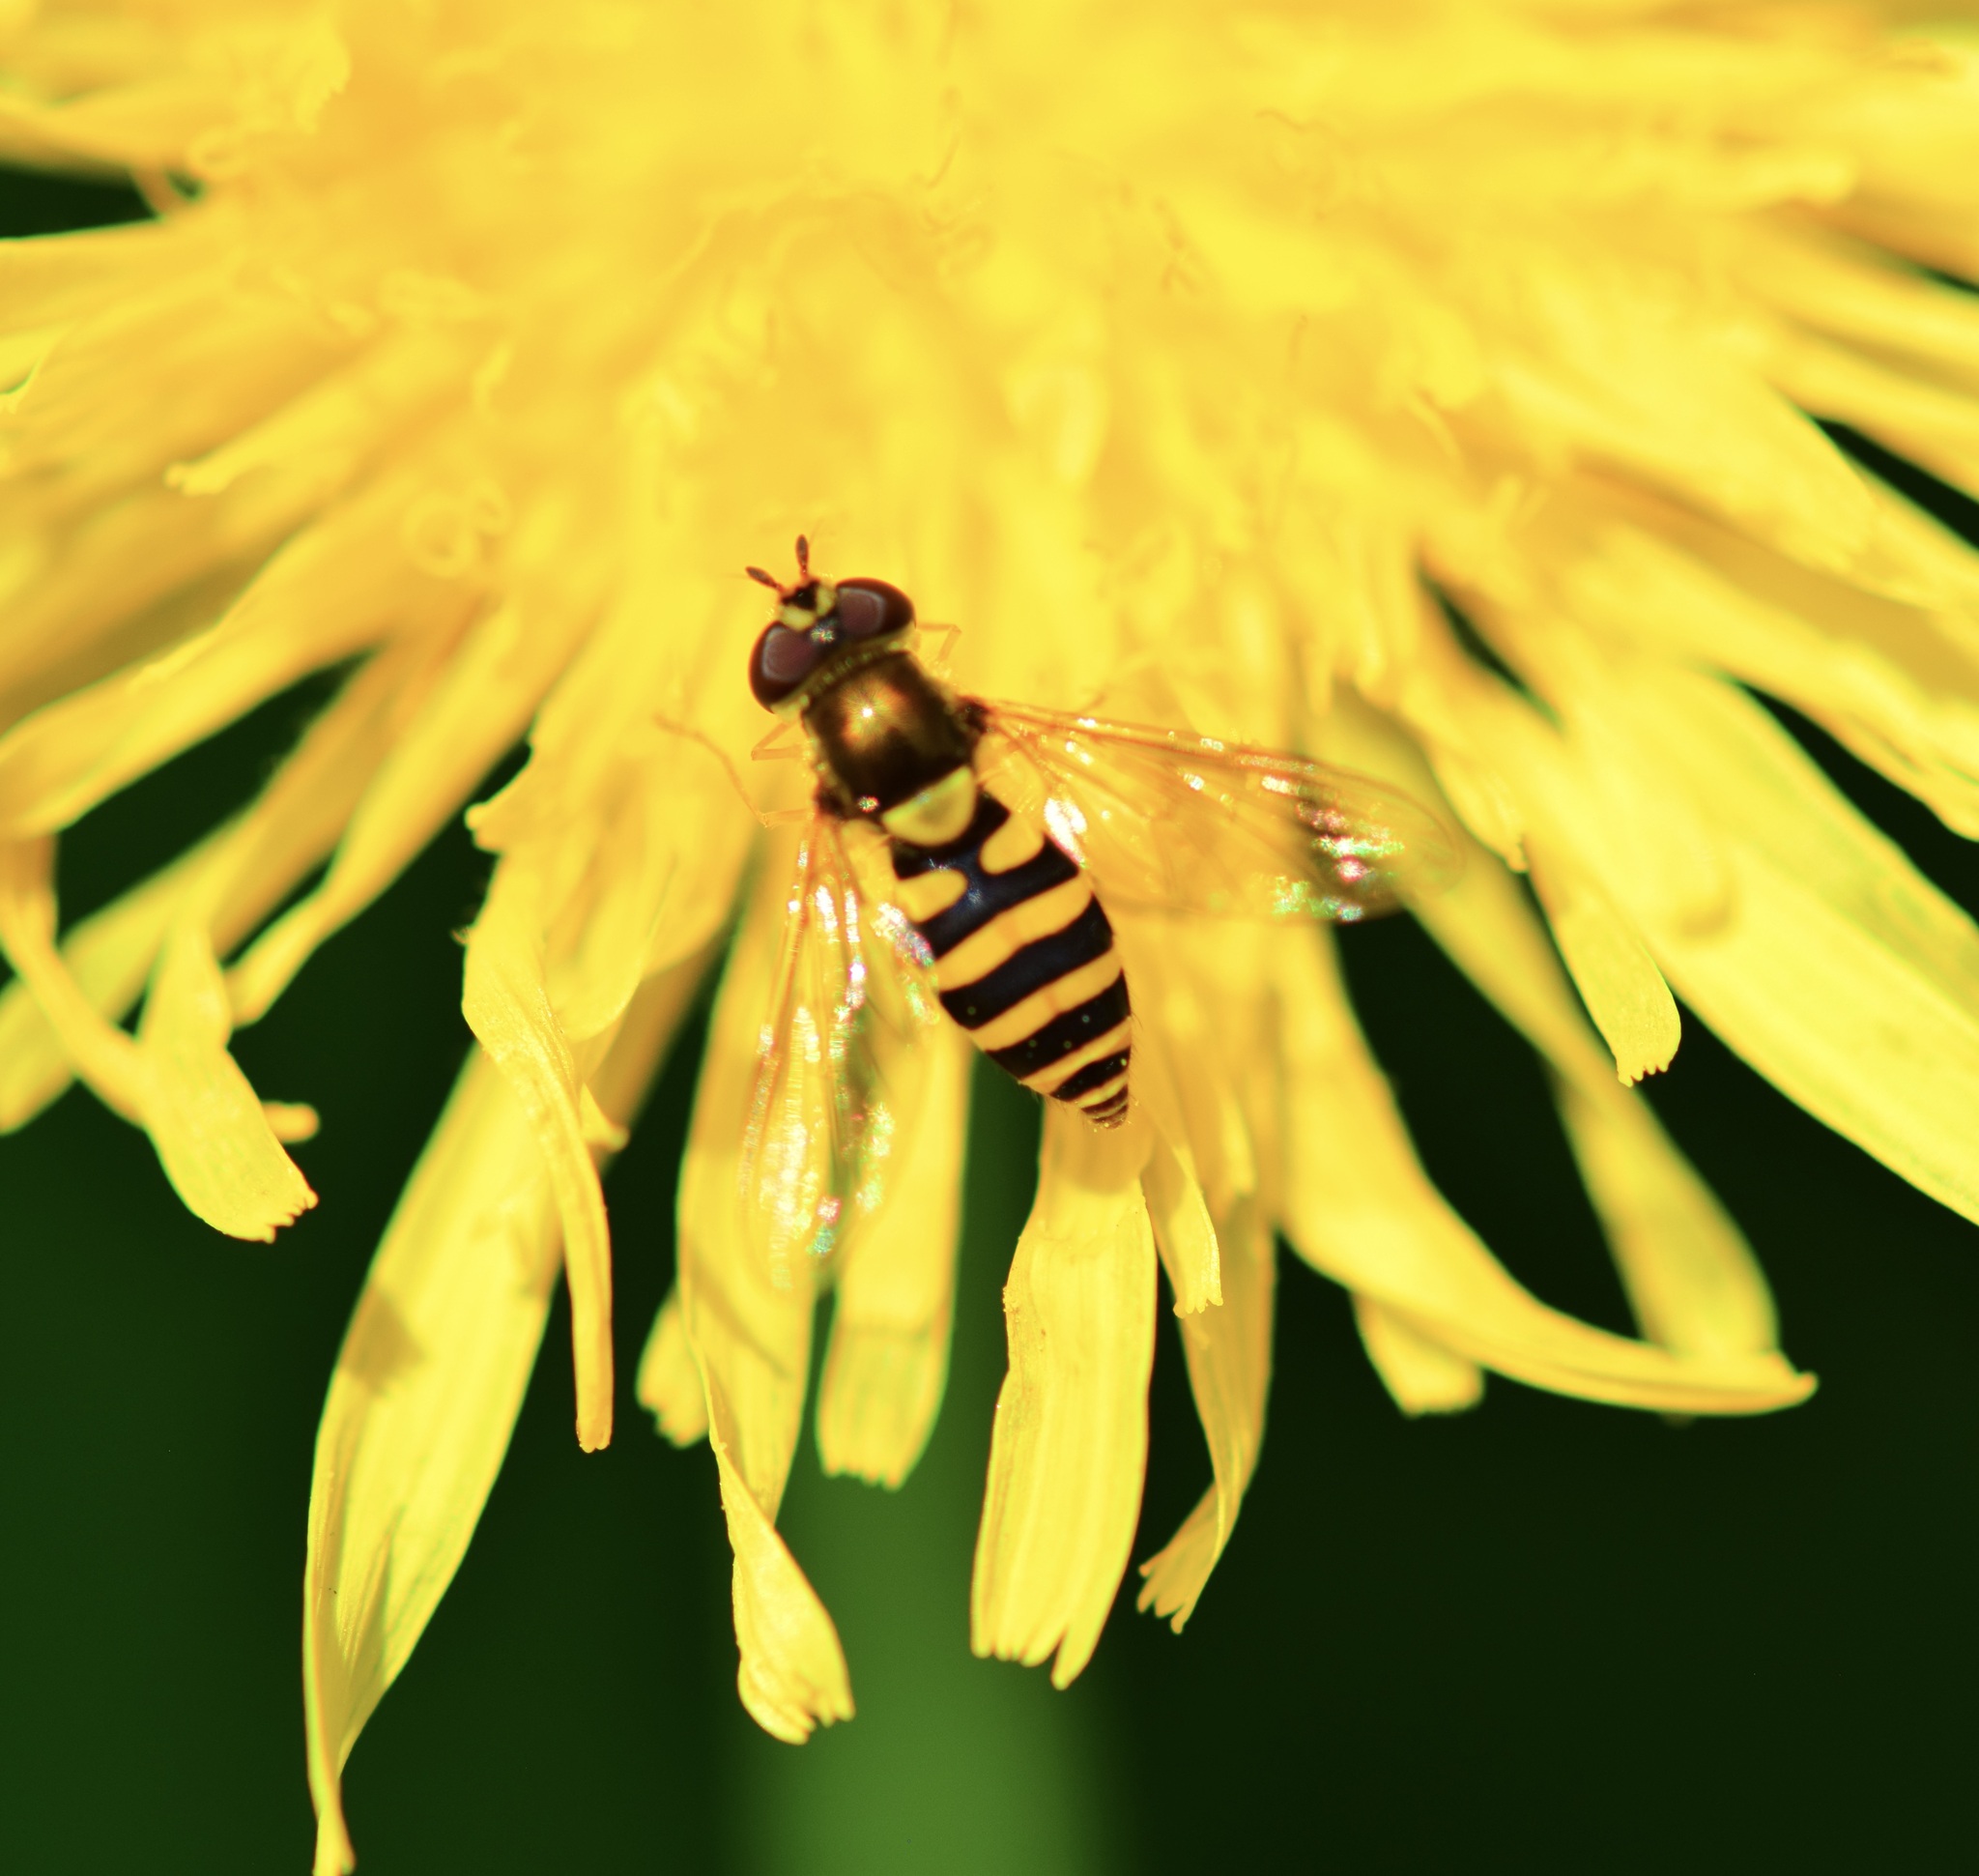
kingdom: Animalia
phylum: Arthropoda
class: Insecta
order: Diptera
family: Syrphidae
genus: Syrphus
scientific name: Syrphus
